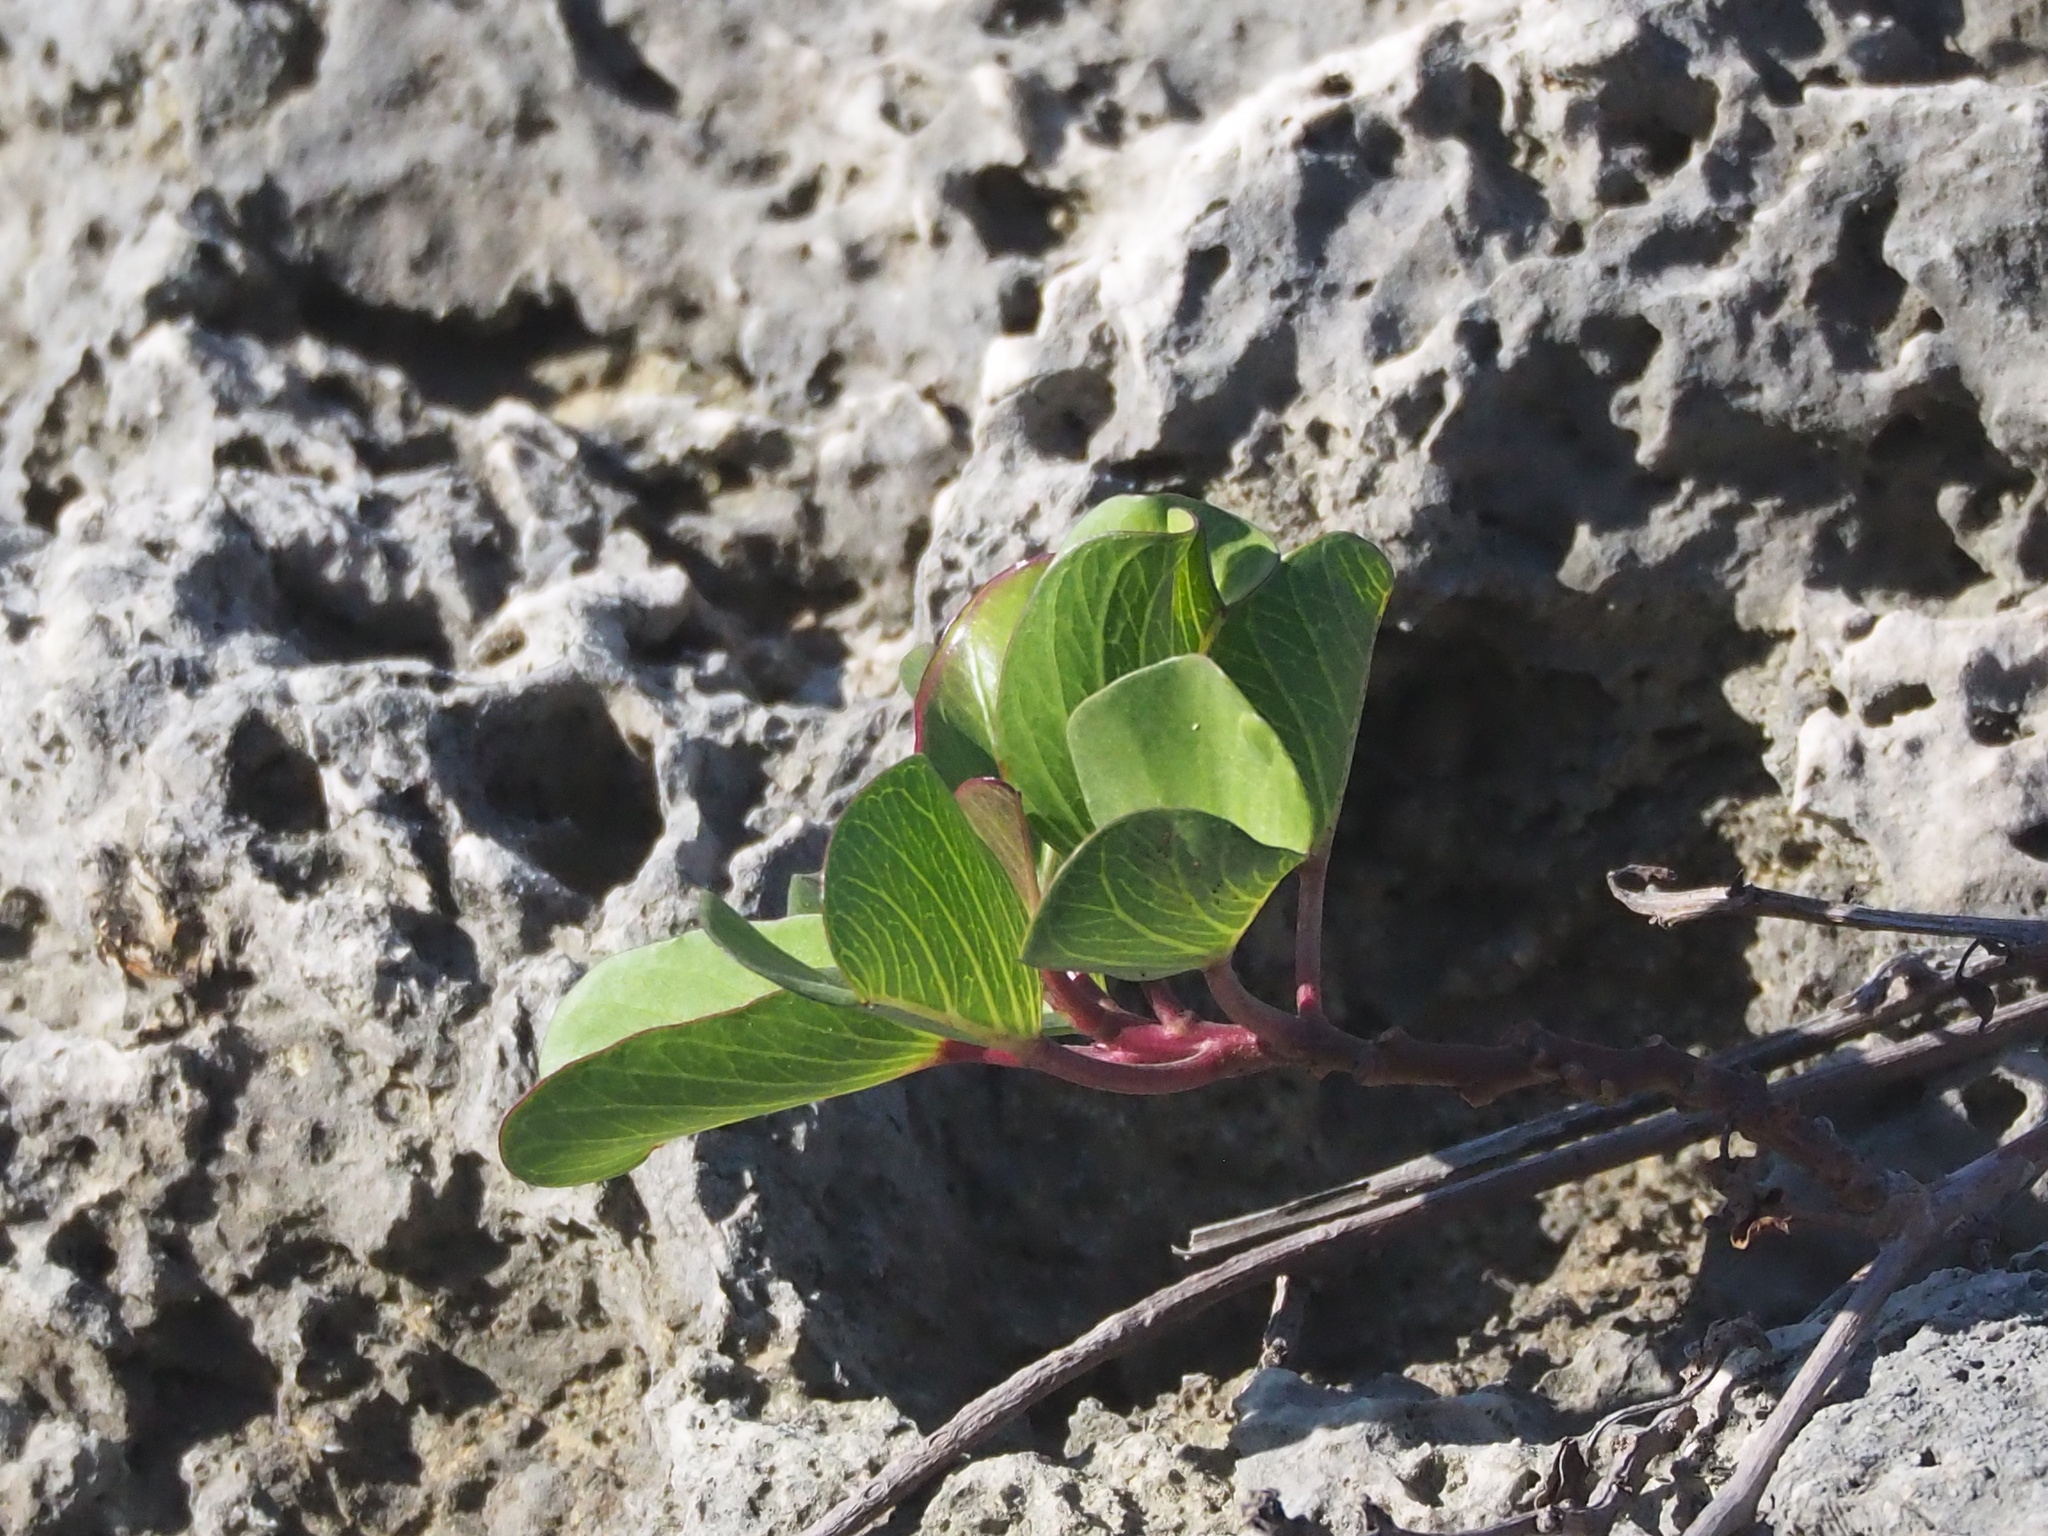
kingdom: Plantae
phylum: Tracheophyta
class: Magnoliopsida
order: Solanales
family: Convolvulaceae
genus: Ipomoea
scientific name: Ipomoea pes-caprae
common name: Beach morning glory
